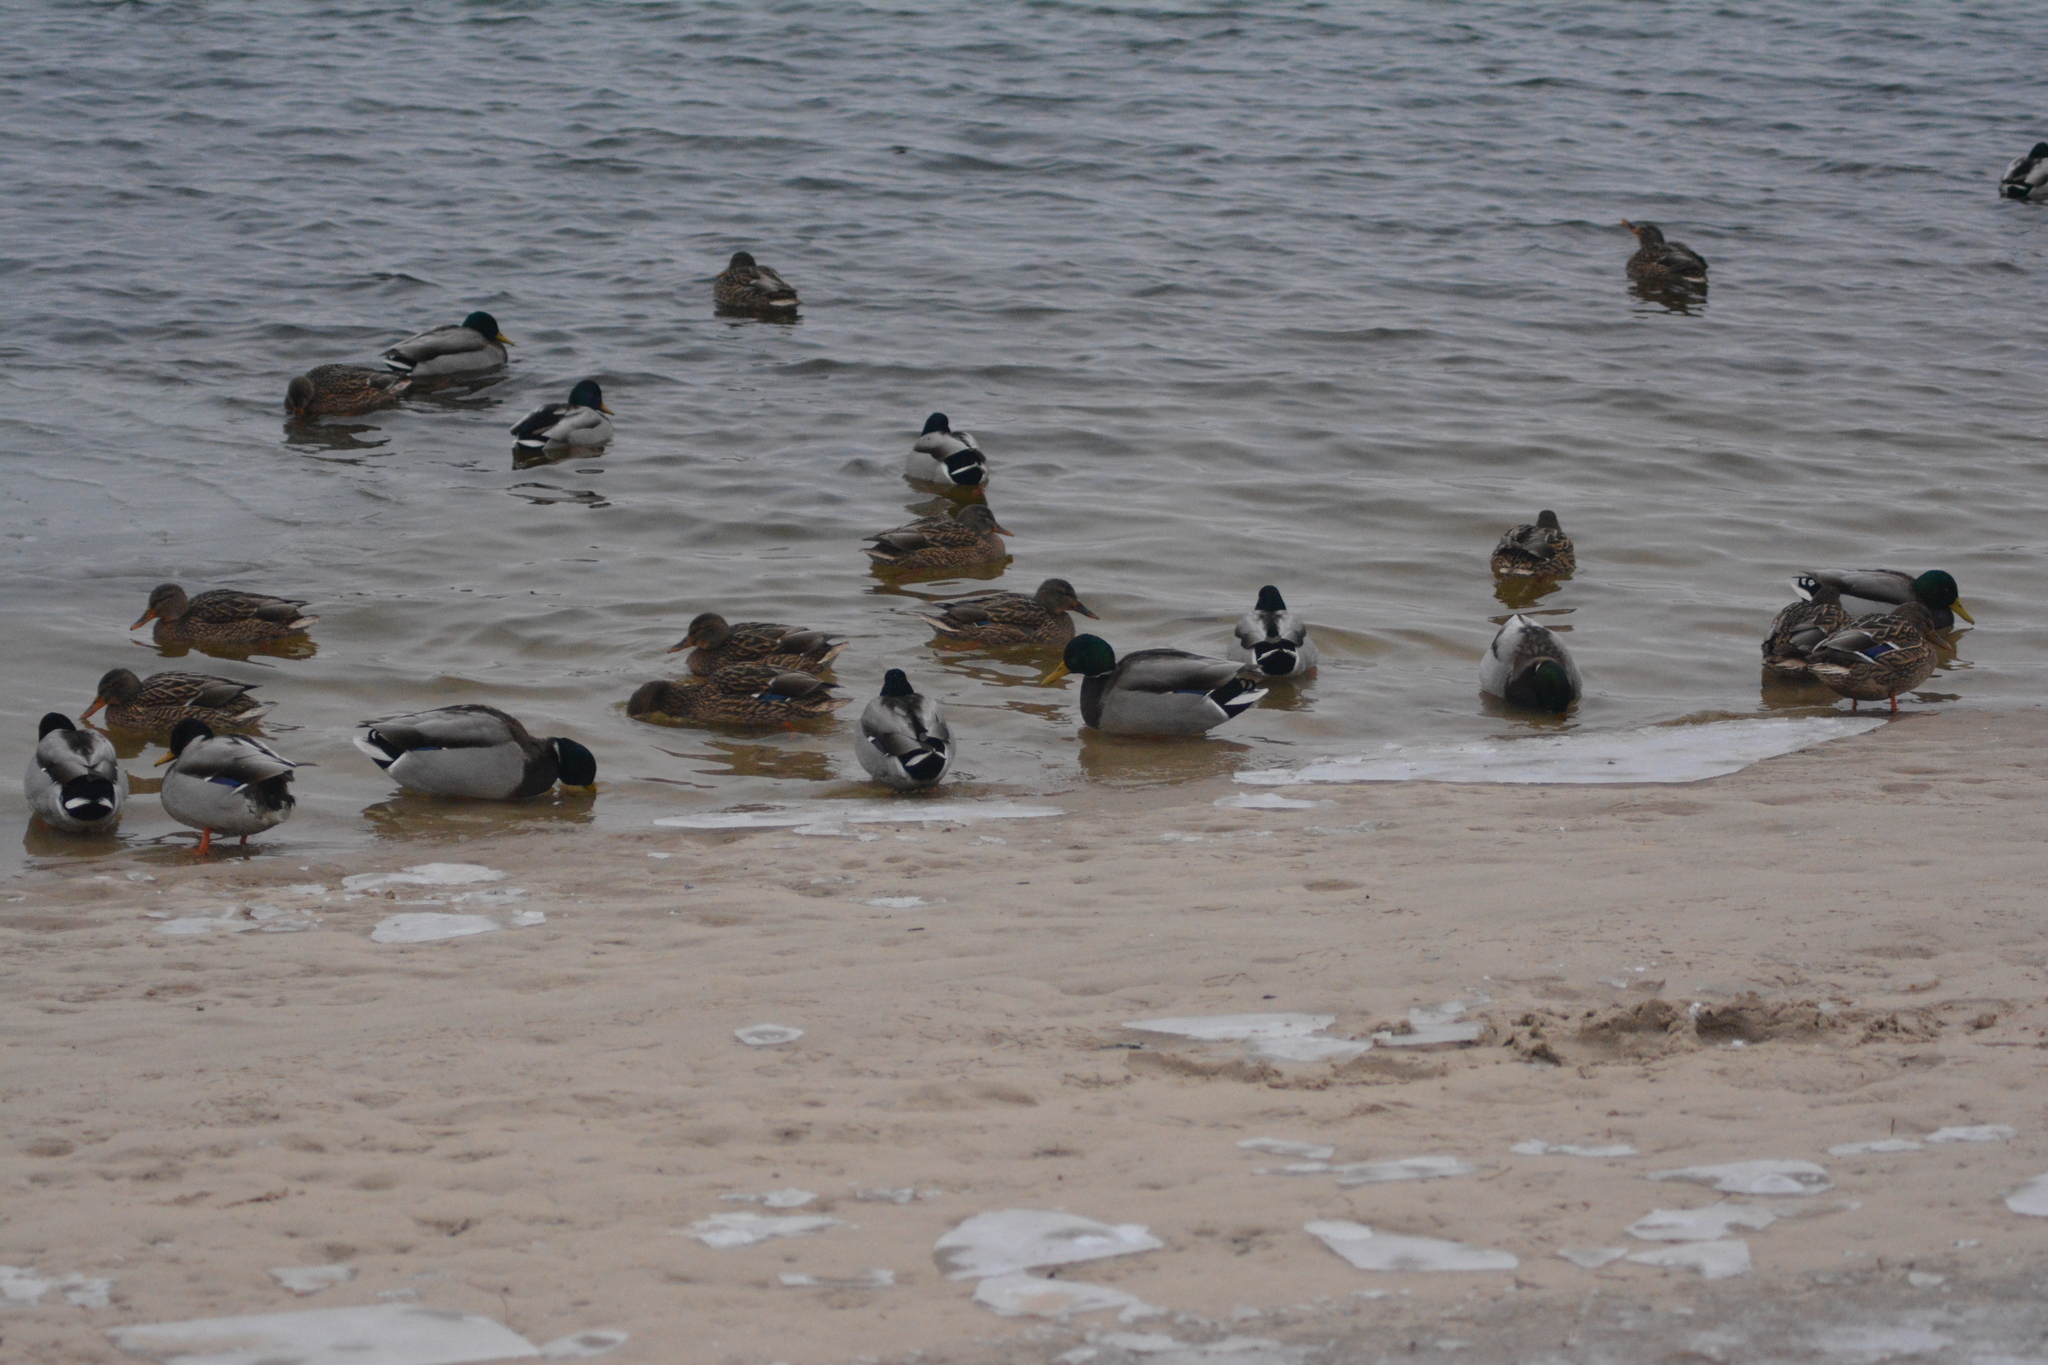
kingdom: Animalia
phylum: Chordata
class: Aves
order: Anseriformes
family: Anatidae
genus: Anas
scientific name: Anas platyrhynchos
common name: Mallard
